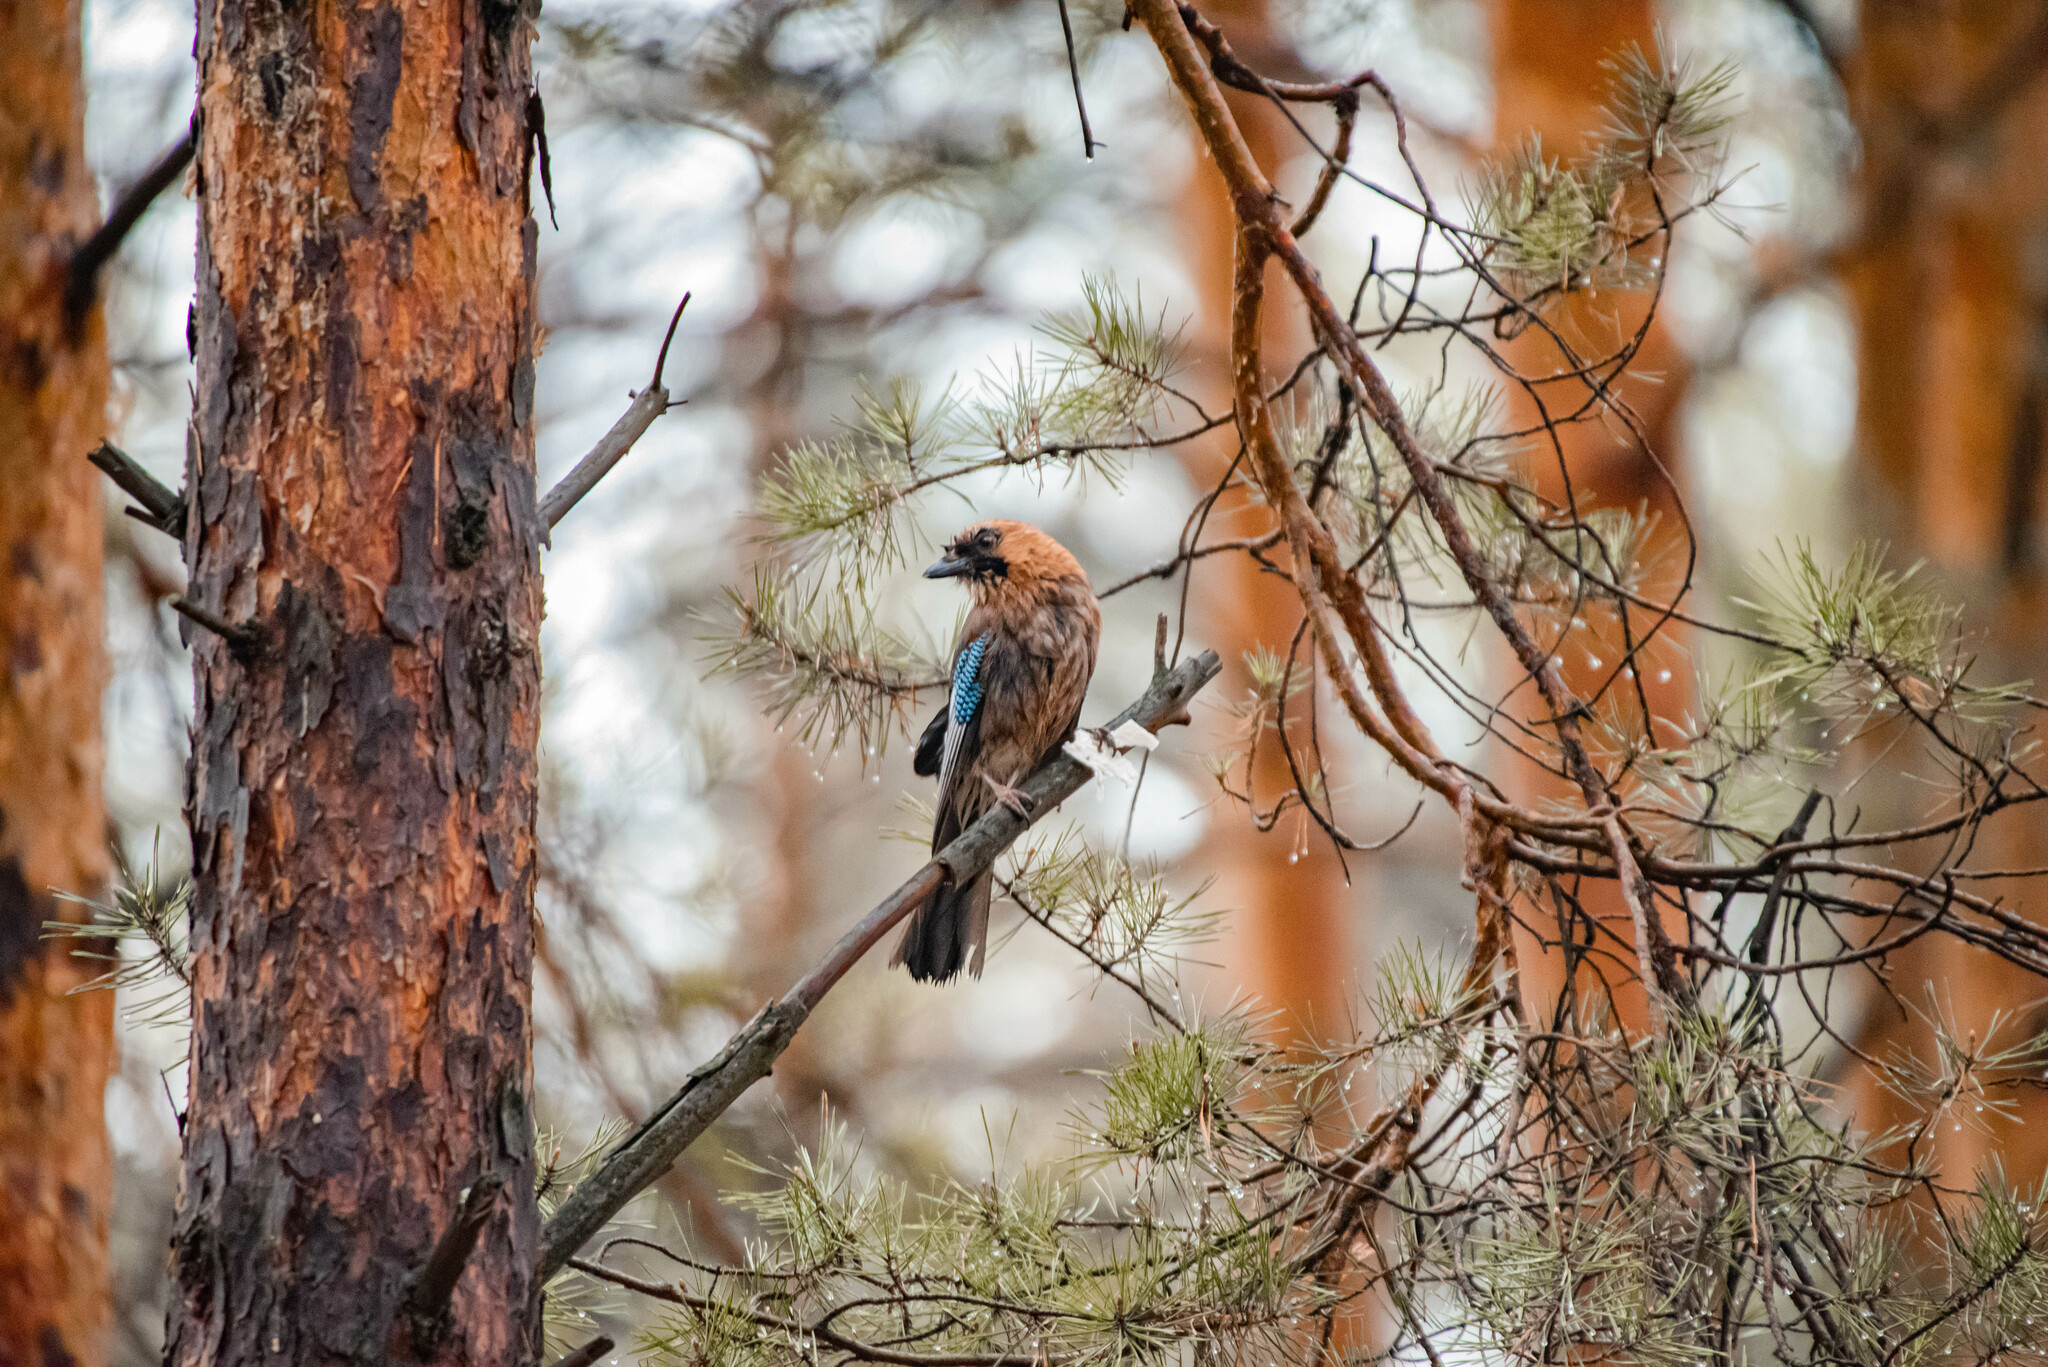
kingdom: Animalia
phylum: Chordata
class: Aves
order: Passeriformes
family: Corvidae
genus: Garrulus
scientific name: Garrulus glandarius
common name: Eurasian jay
